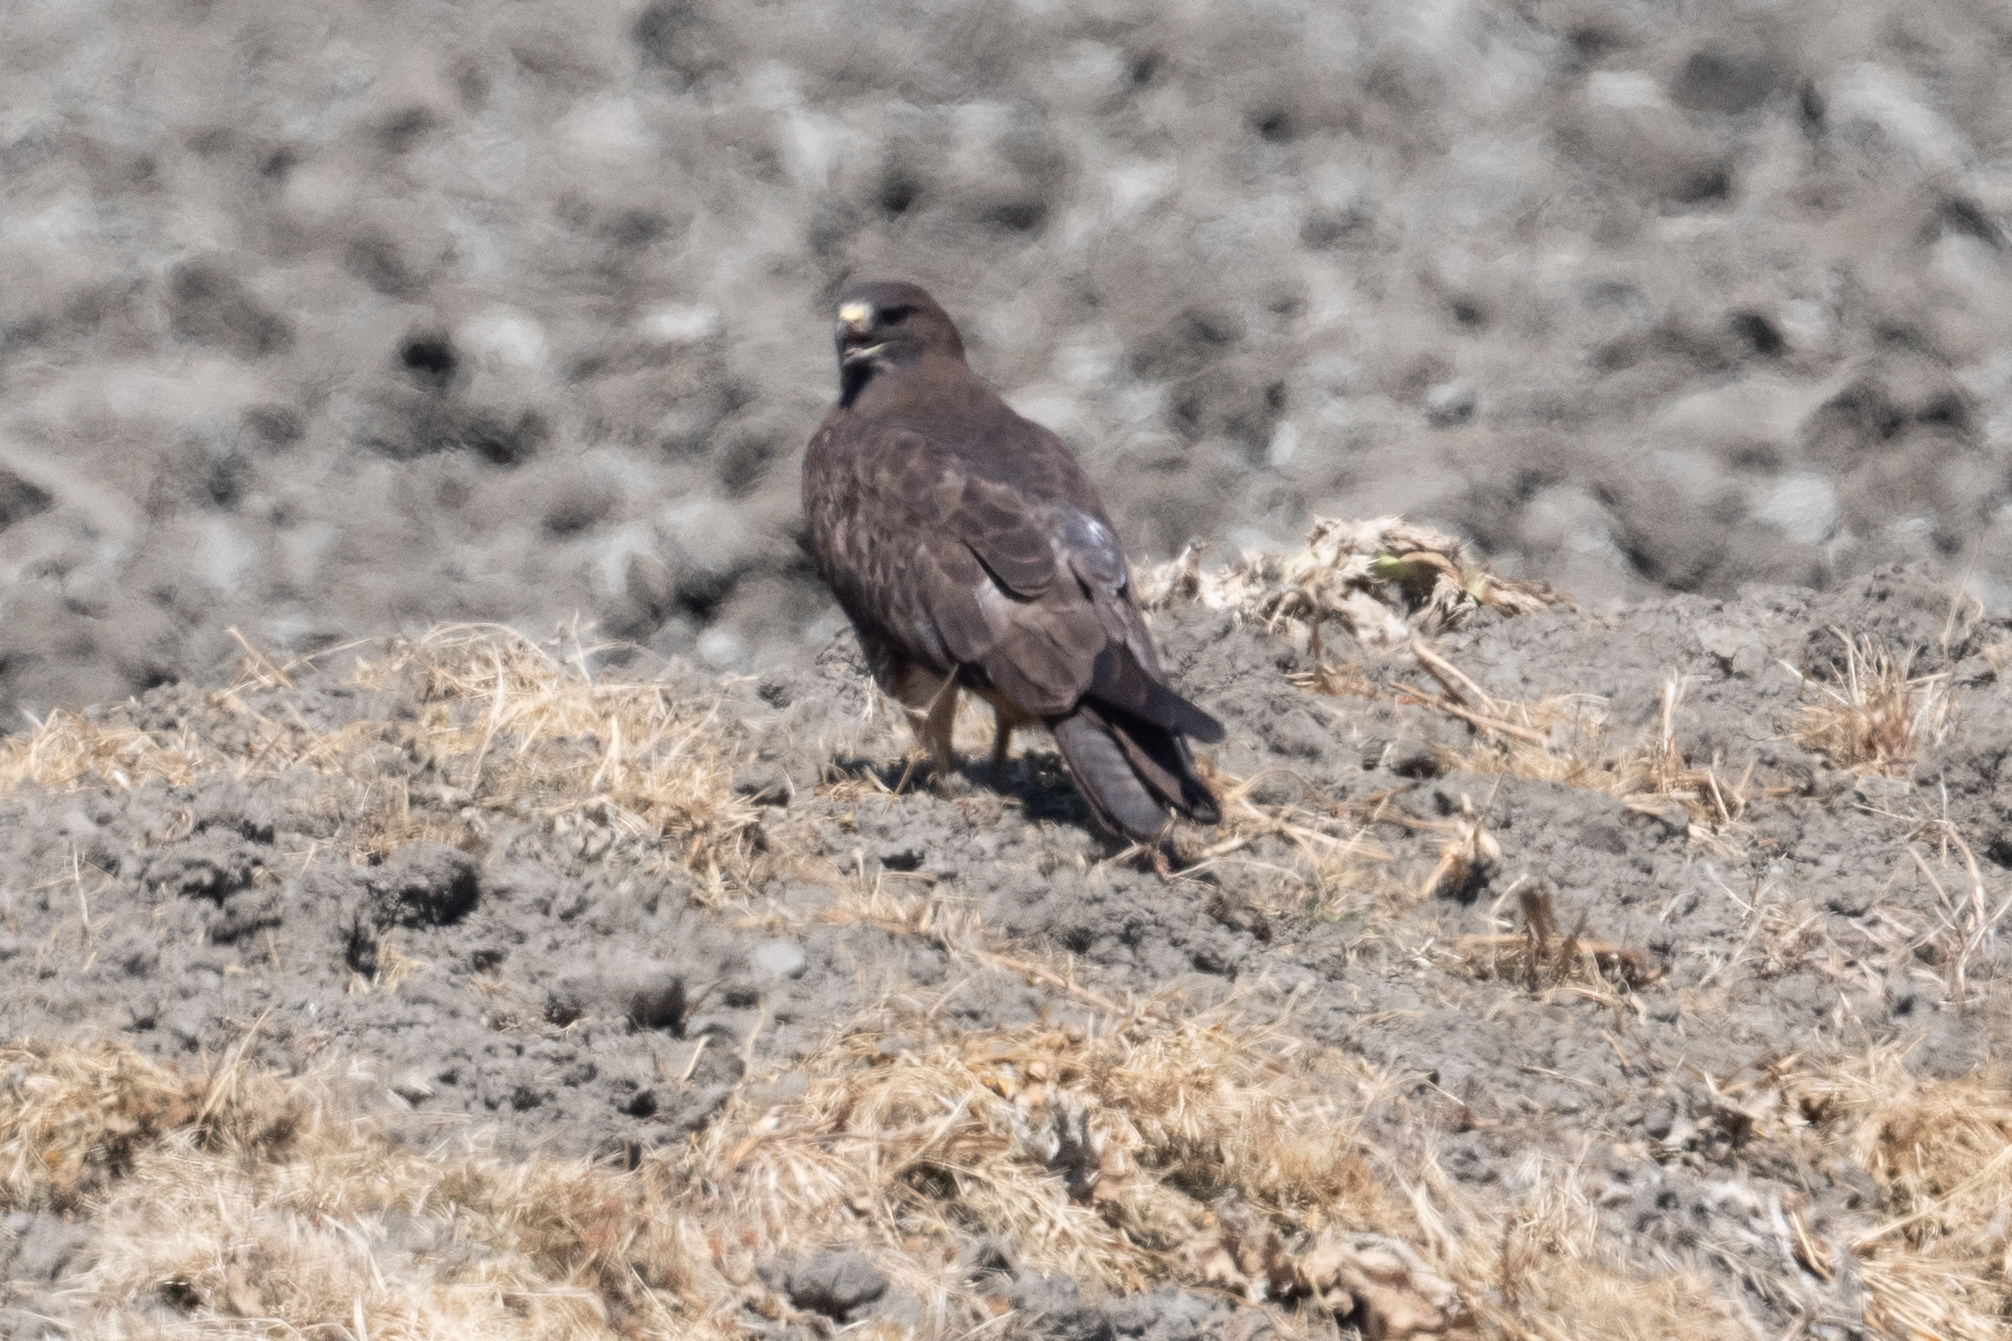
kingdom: Animalia
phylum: Chordata
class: Aves
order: Accipitriformes
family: Accipitridae
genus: Buteo
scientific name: Buteo swainsoni
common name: Swainson's hawk
